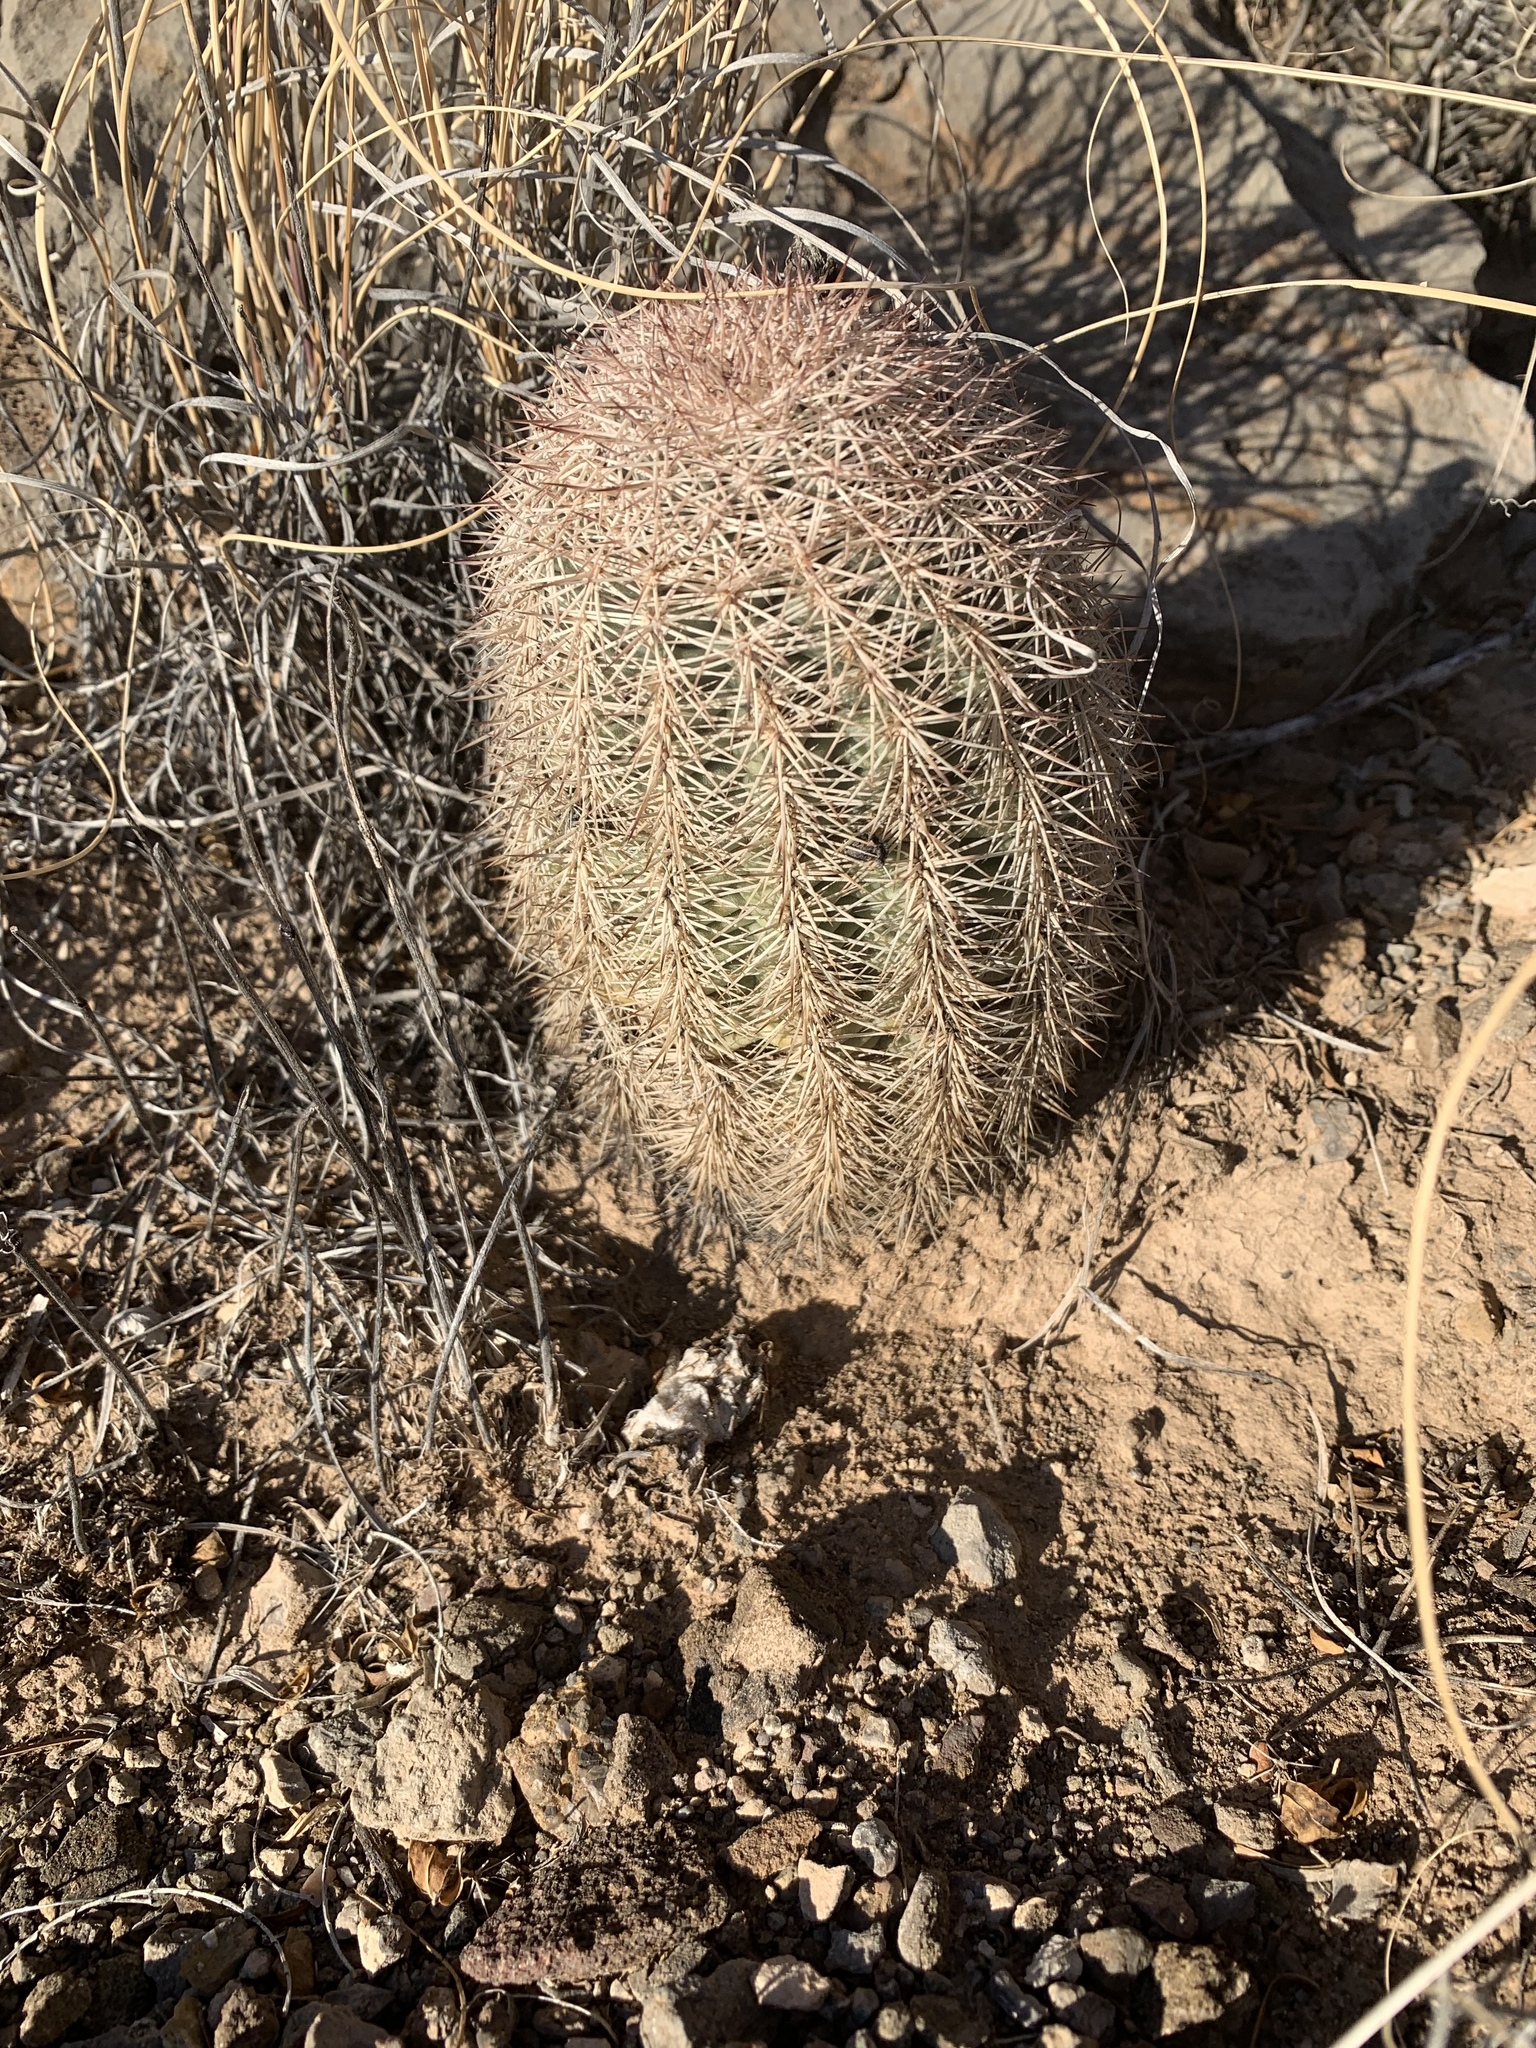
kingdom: Plantae
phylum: Tracheophyta
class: Magnoliopsida
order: Caryophyllales
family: Cactaceae
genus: Echinocereus
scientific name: Echinocereus dasyacanthus
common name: Spiny hedgehog cactus
